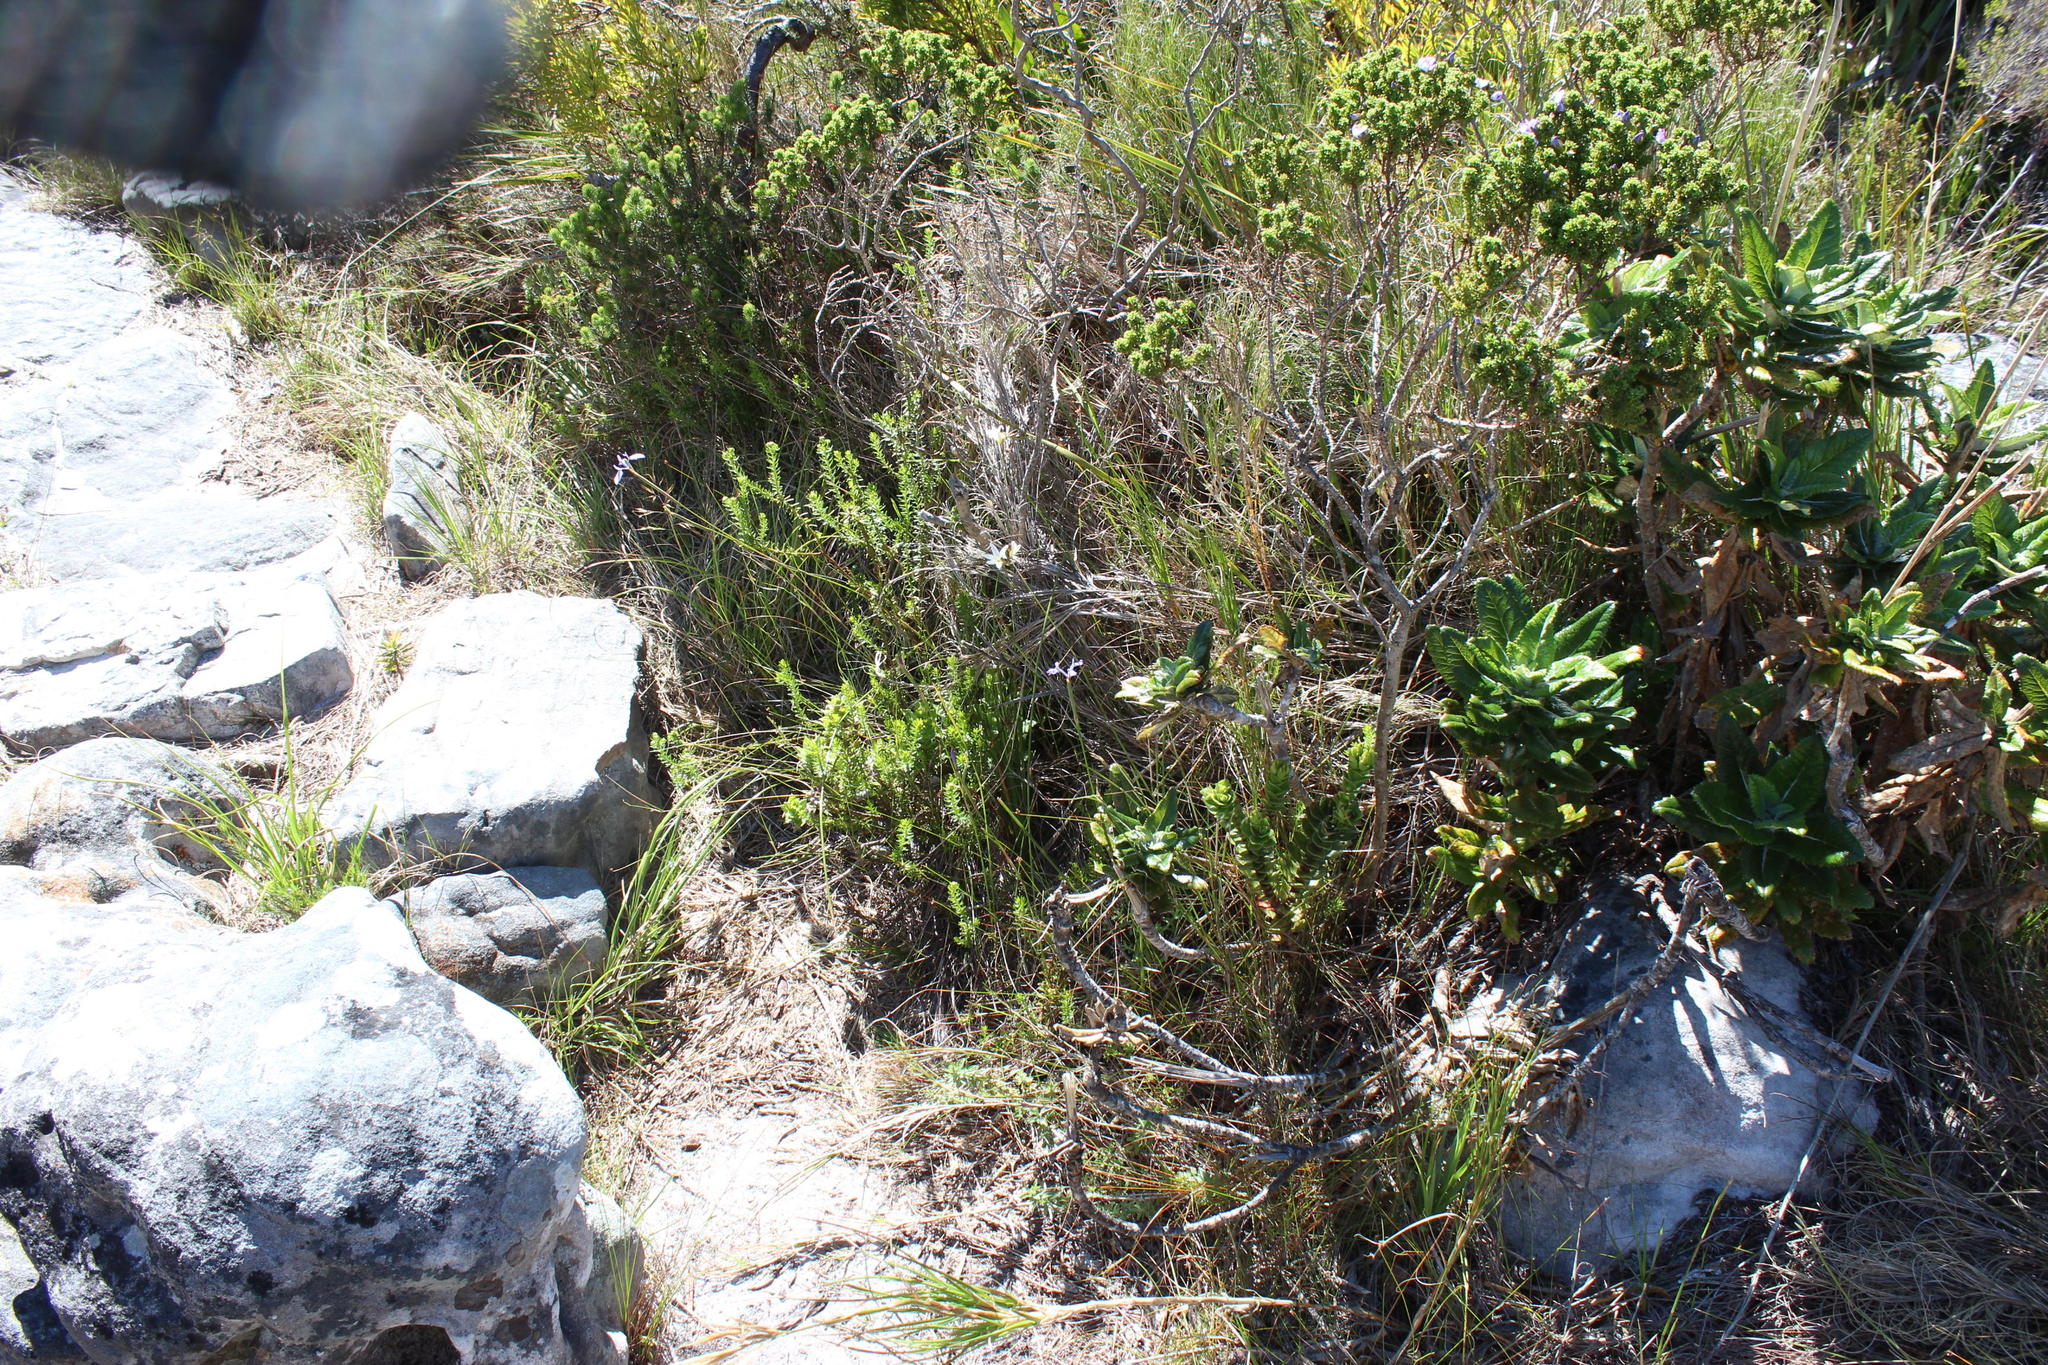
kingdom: Plantae
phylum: Tracheophyta
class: Liliopsida
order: Asparagales
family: Iridaceae
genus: Moraea
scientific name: Moraea tripetala
